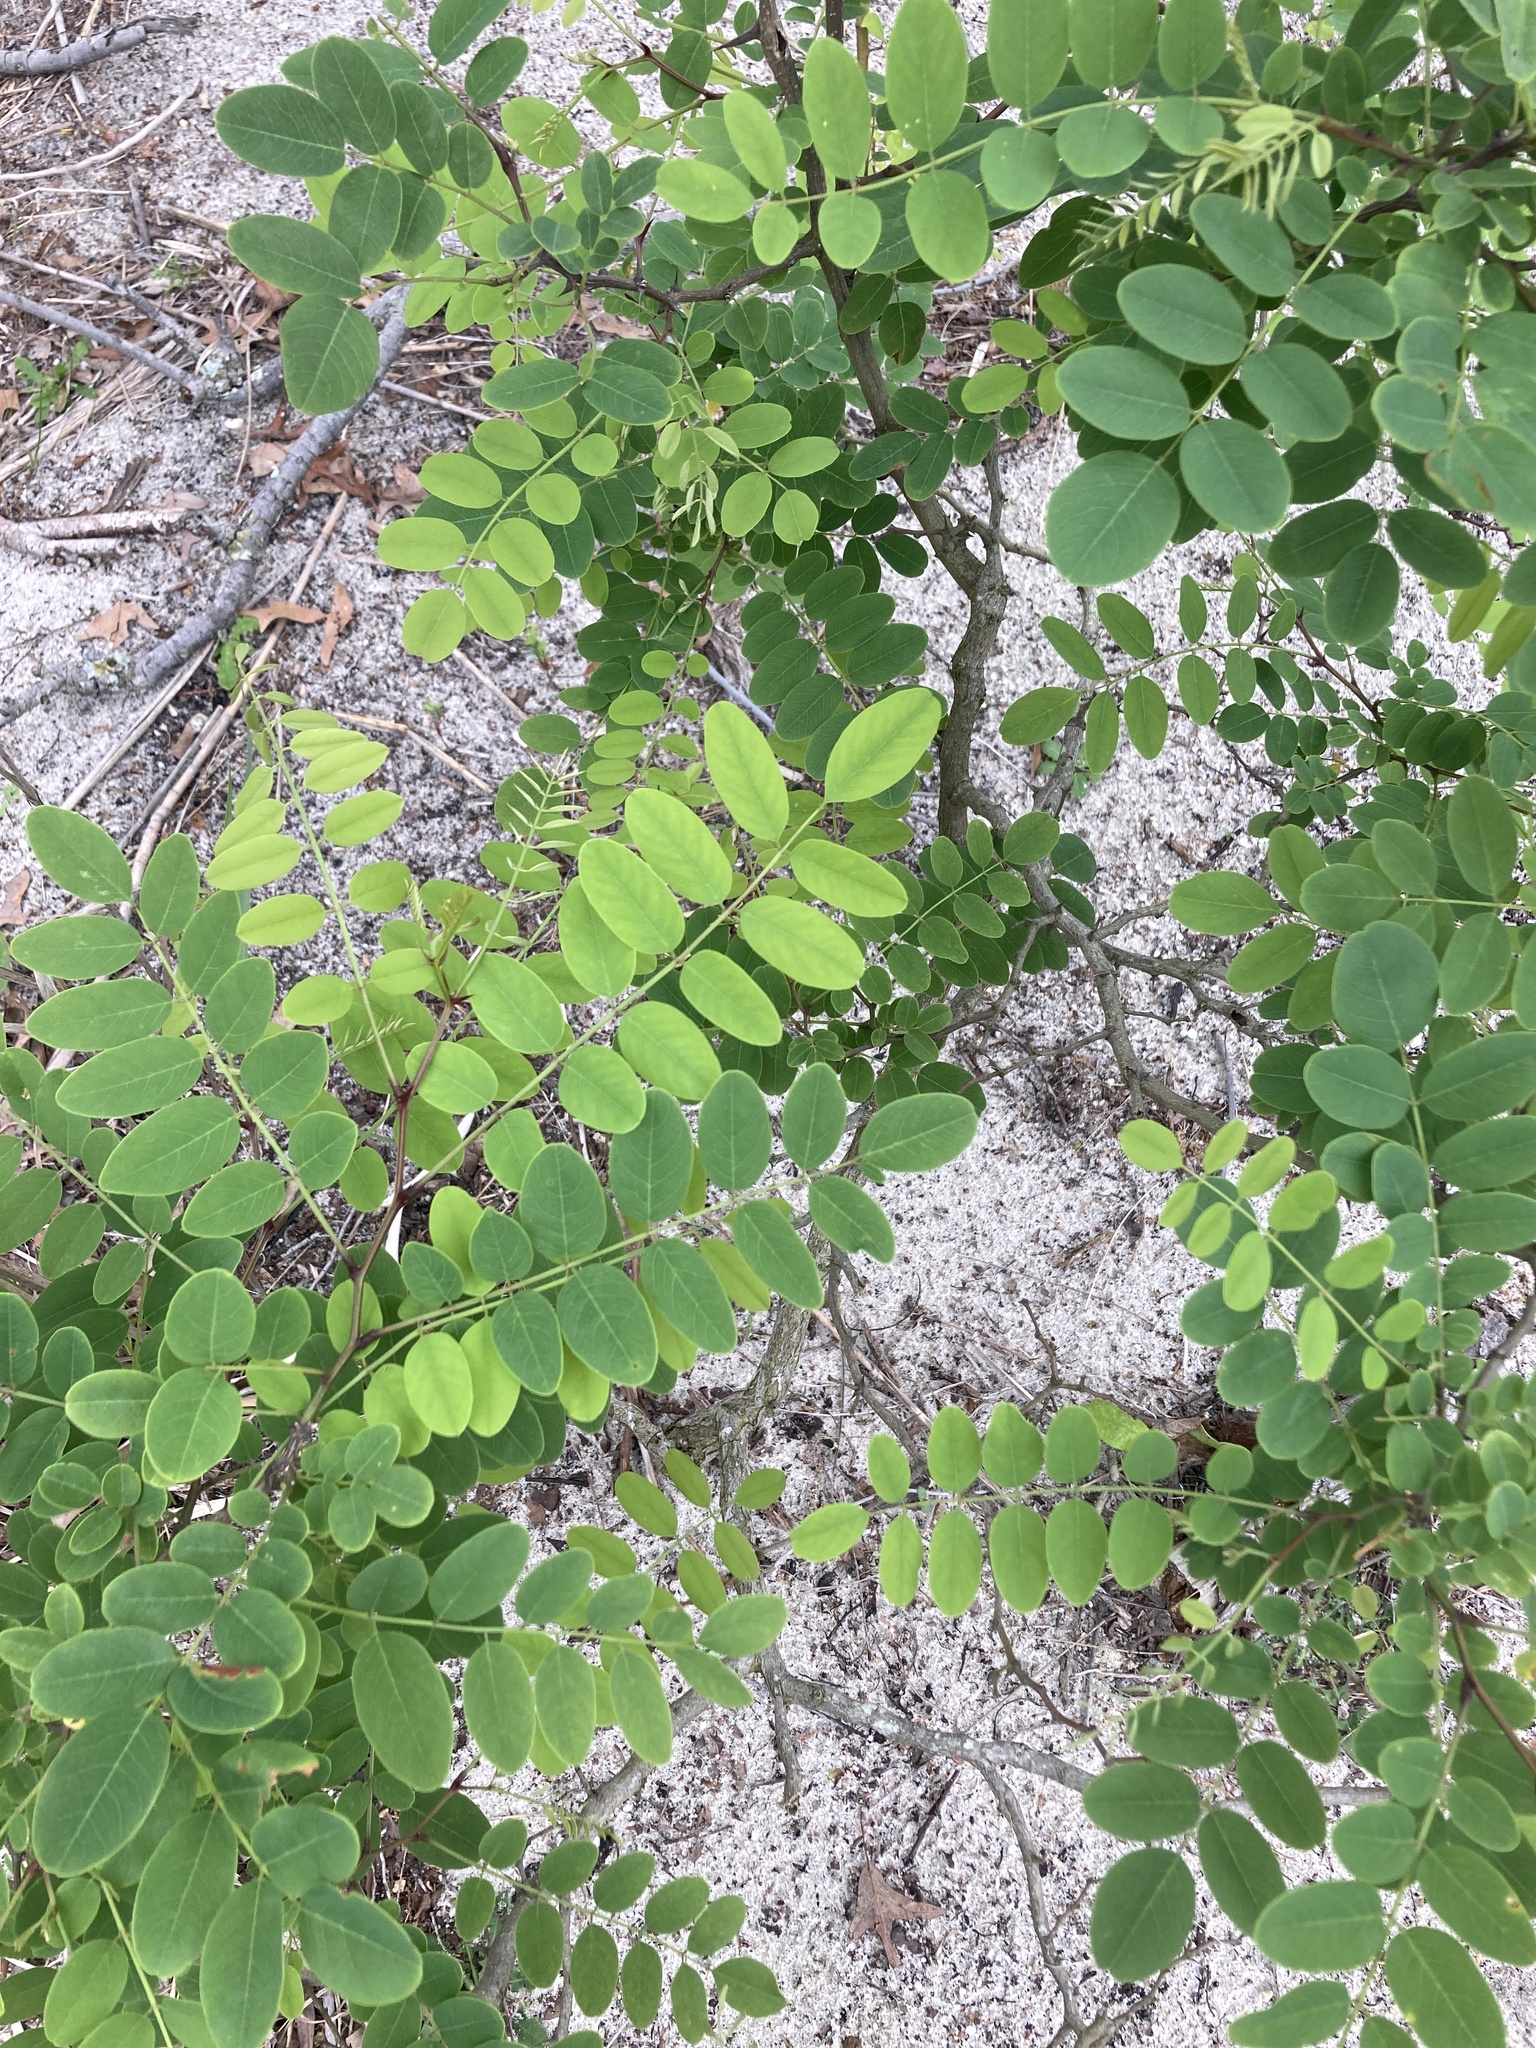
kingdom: Plantae
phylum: Tracheophyta
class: Magnoliopsida
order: Fabales
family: Fabaceae
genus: Robinia
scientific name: Robinia pseudoacacia
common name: Black locust
